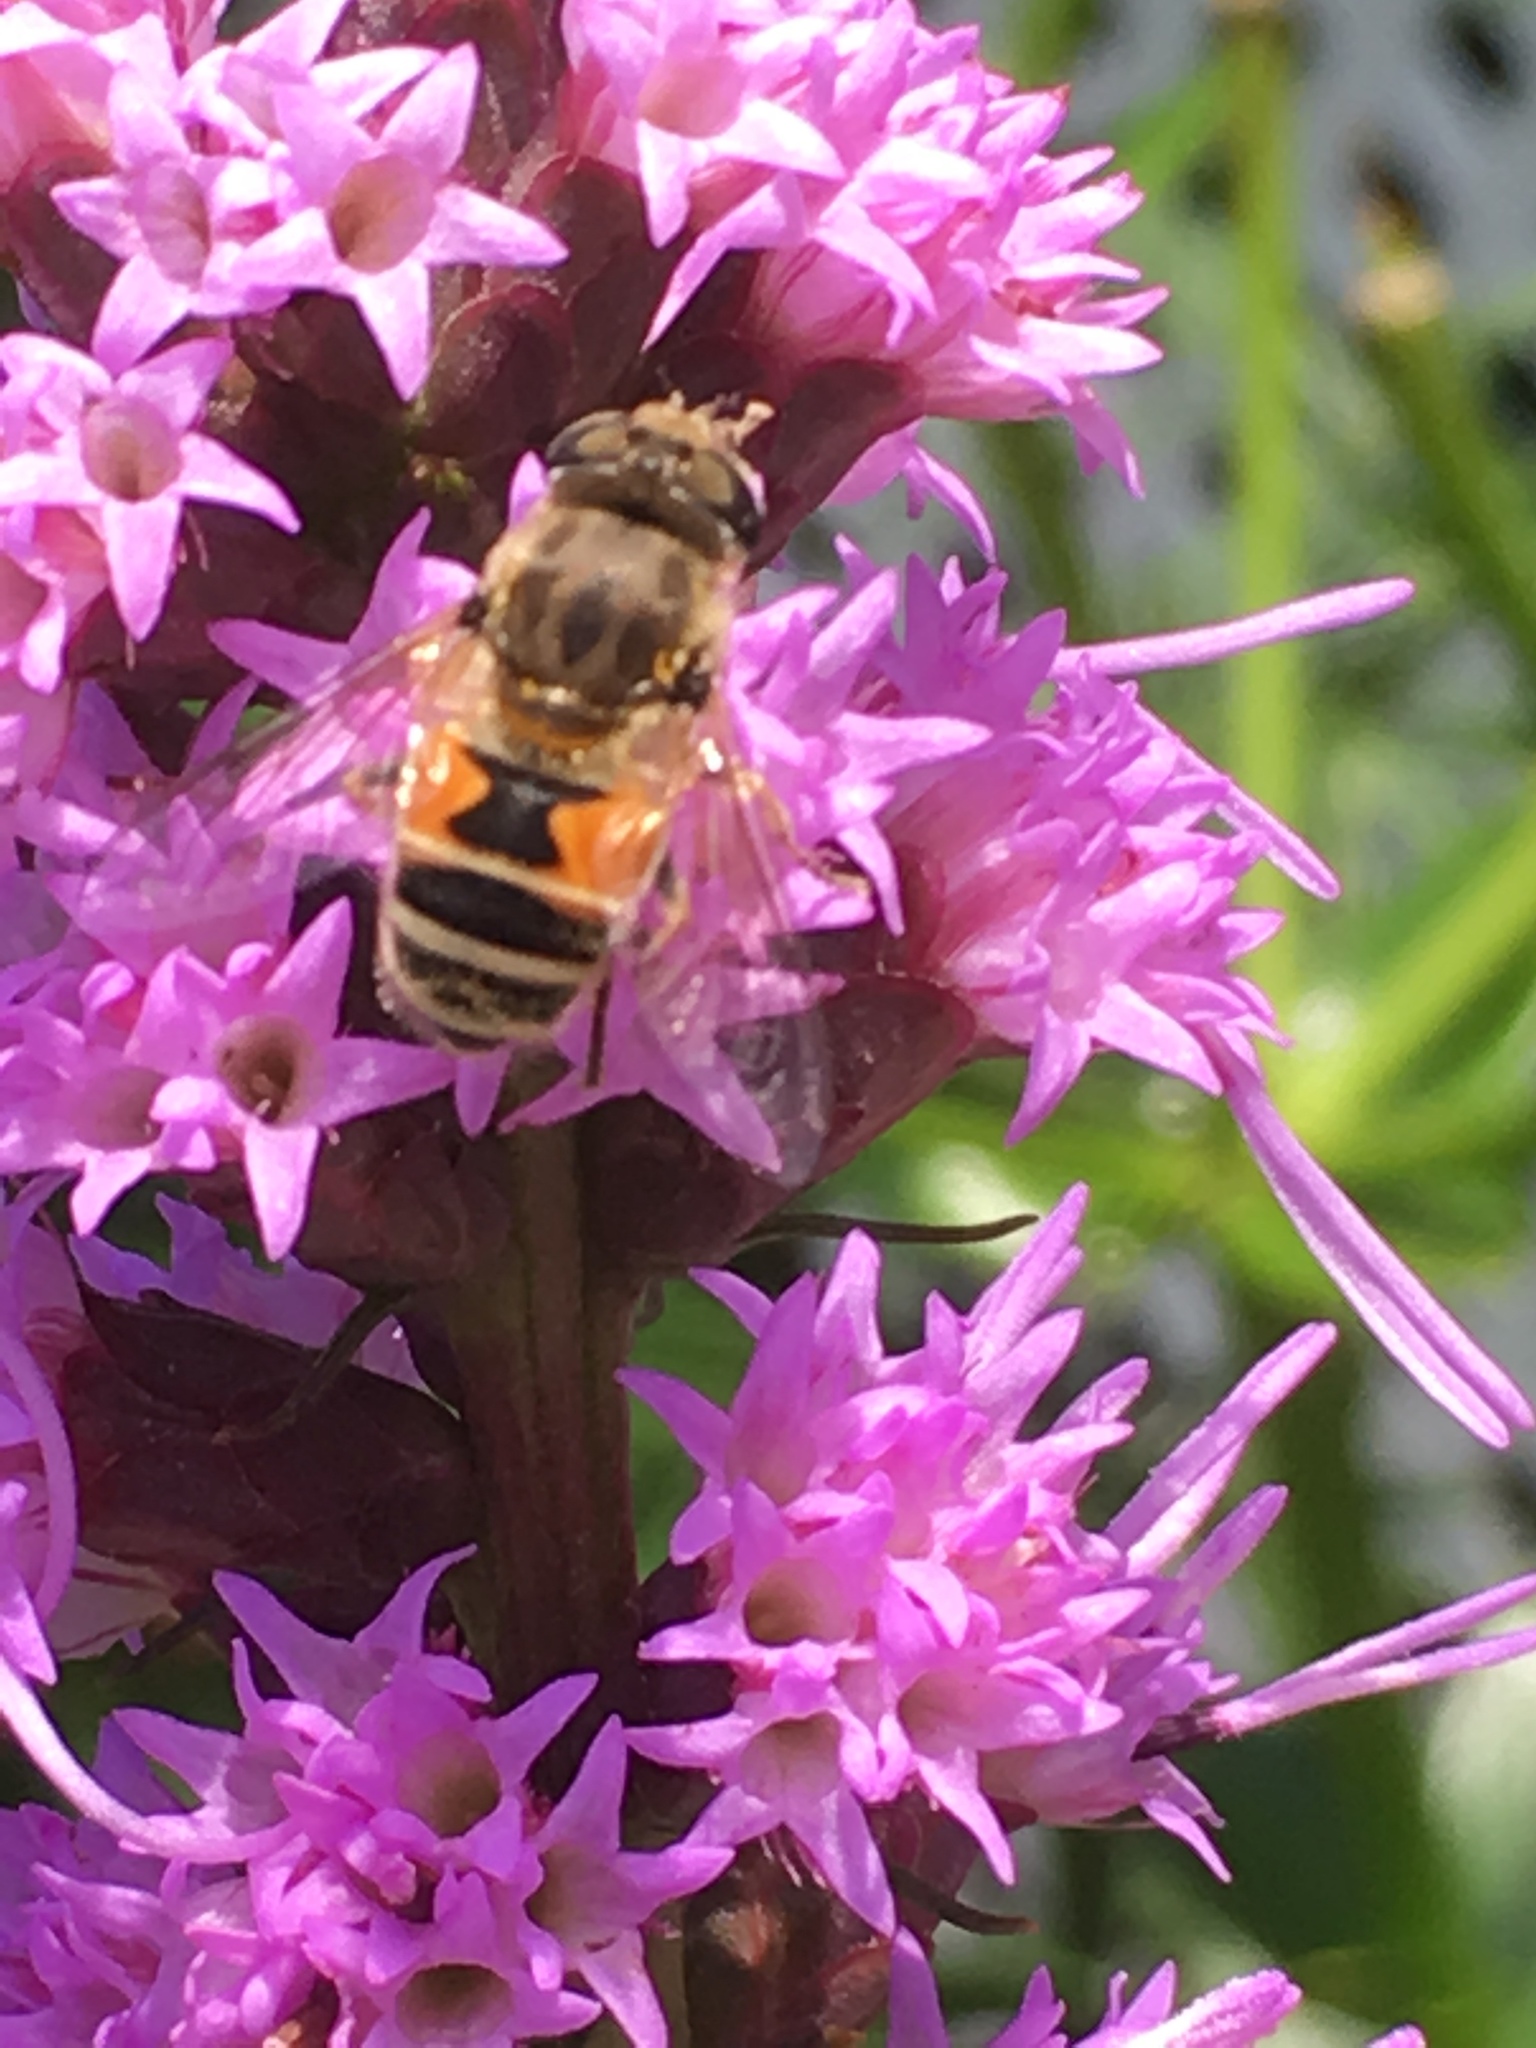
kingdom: Animalia
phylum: Arthropoda
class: Insecta
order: Diptera
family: Syrphidae
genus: Eristalis
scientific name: Eristalis arbustorum
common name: Hover fly
